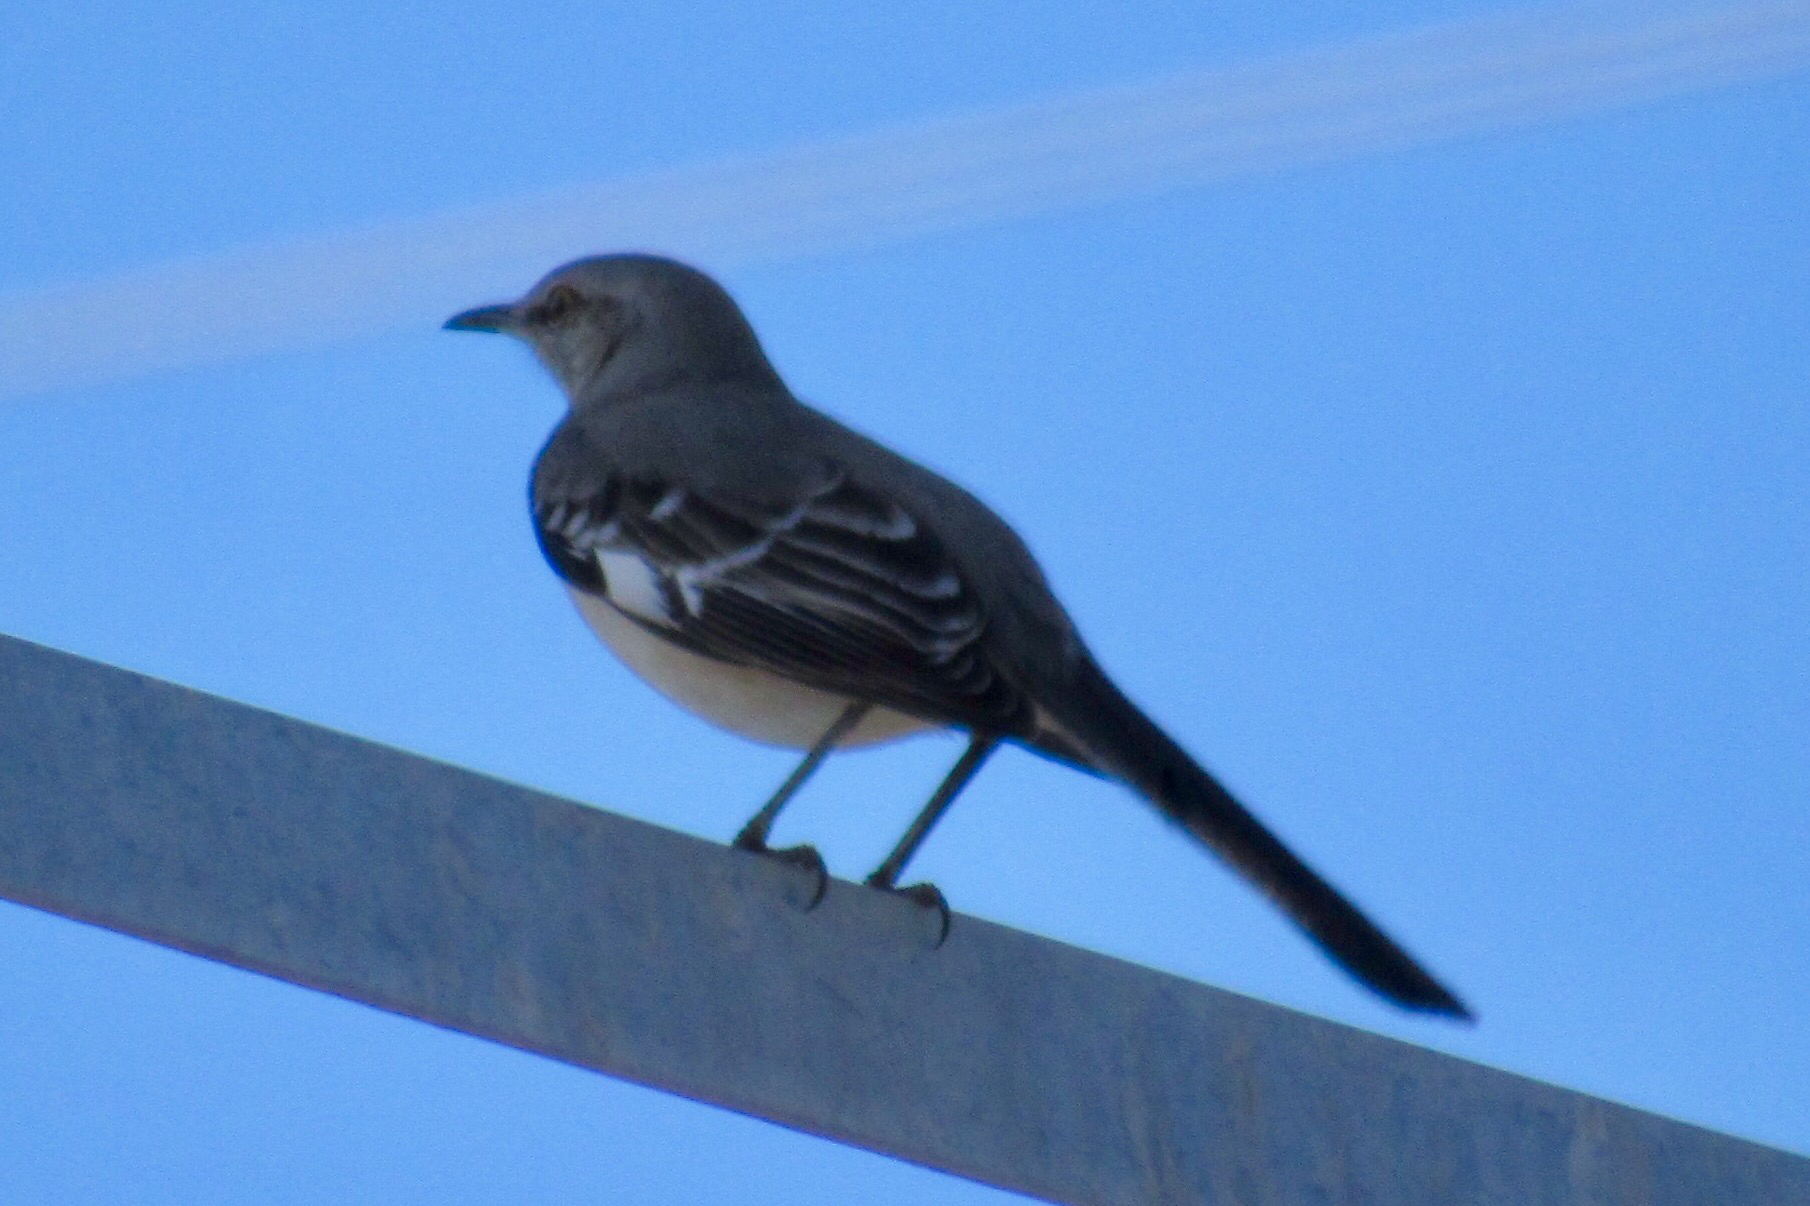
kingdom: Animalia
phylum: Chordata
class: Aves
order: Passeriformes
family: Mimidae
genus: Mimus
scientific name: Mimus polyglottos
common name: Northern mockingbird
